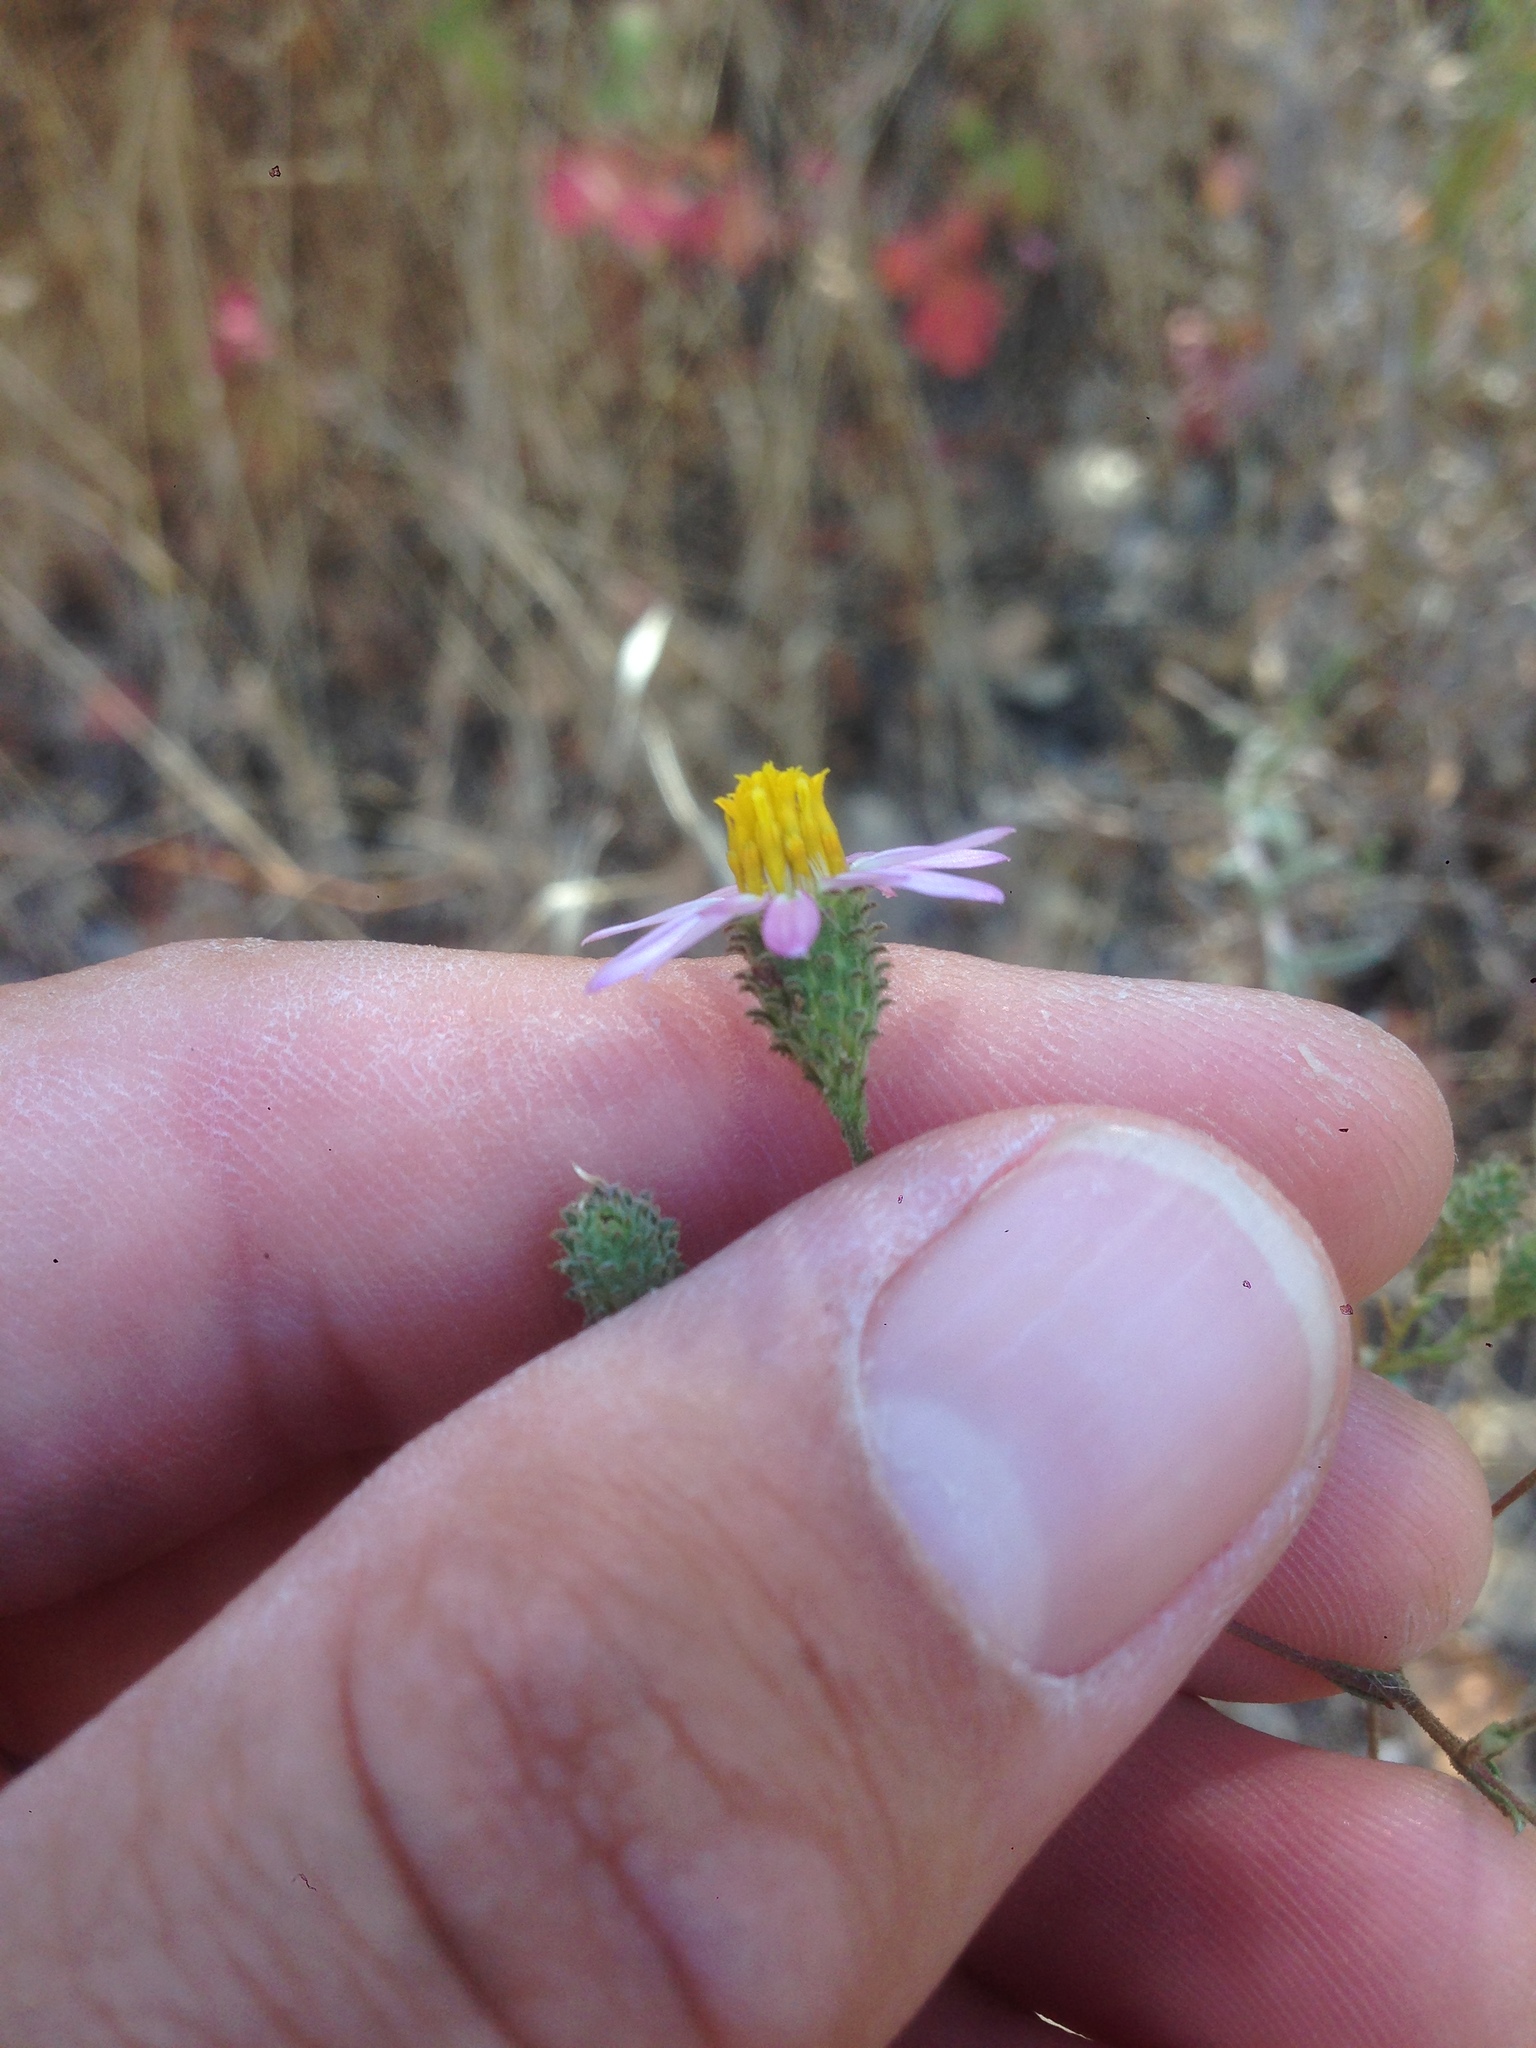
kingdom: Plantae
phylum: Tracheophyta
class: Magnoliopsida
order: Asterales
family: Asteraceae
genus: Corethrogyne
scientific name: Corethrogyne filaginifolia
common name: Sand-aster
